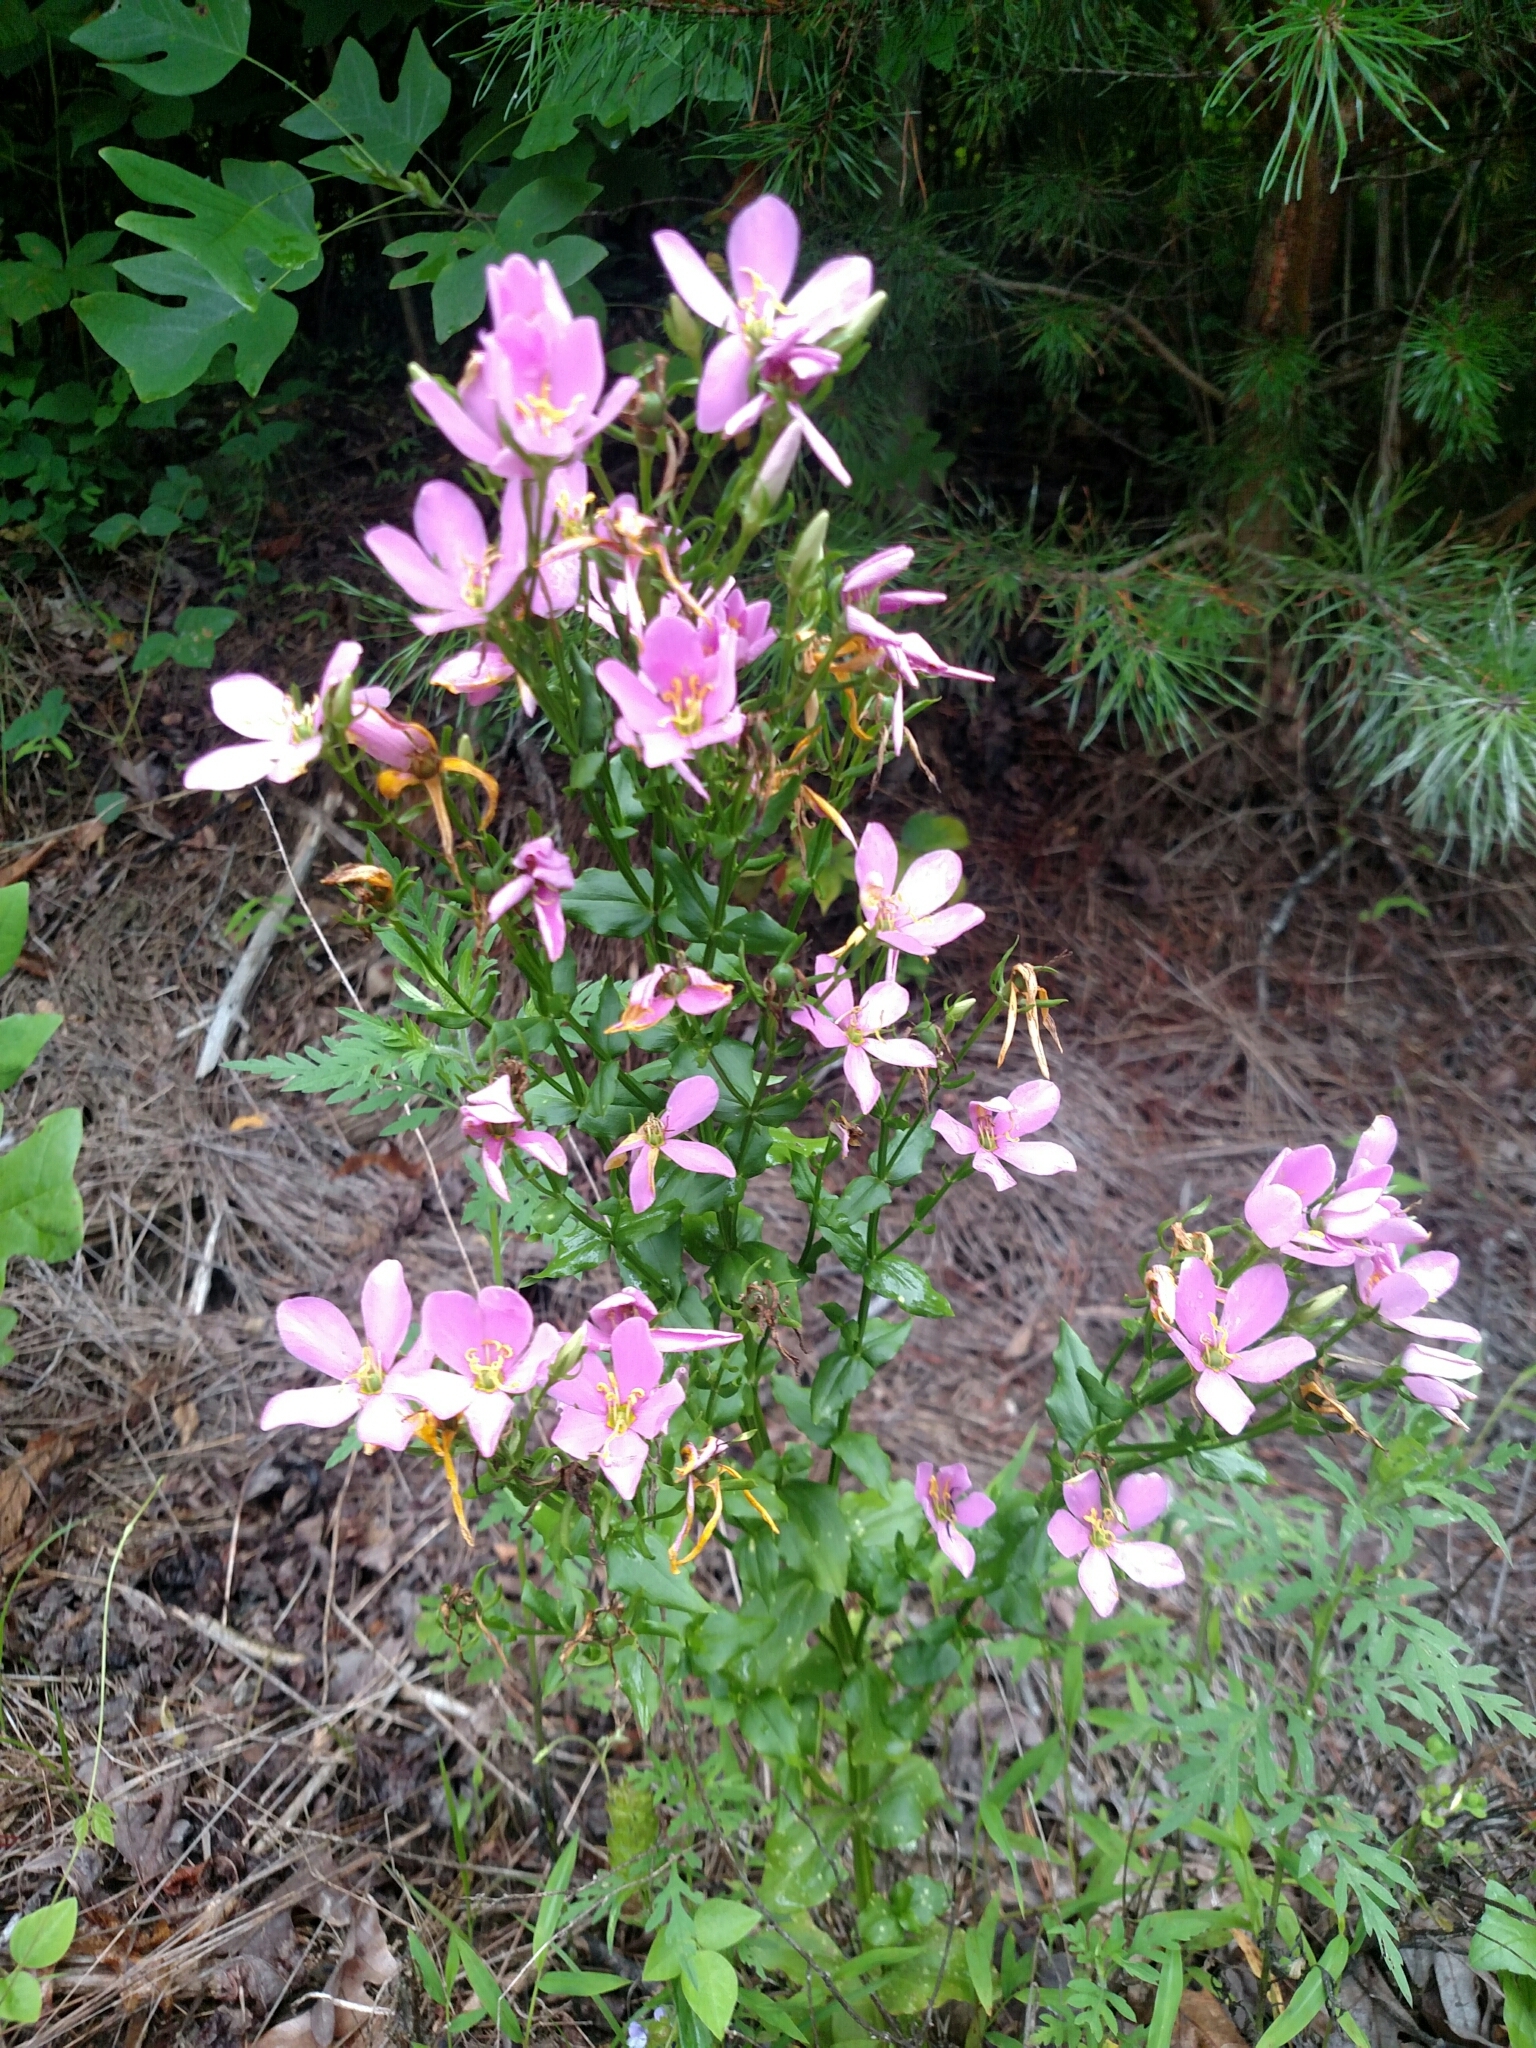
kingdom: Plantae
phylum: Tracheophyta
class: Magnoliopsida
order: Gentianales
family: Gentianaceae
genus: Sabatia
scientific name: Sabatia angularis
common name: Rose-pink
